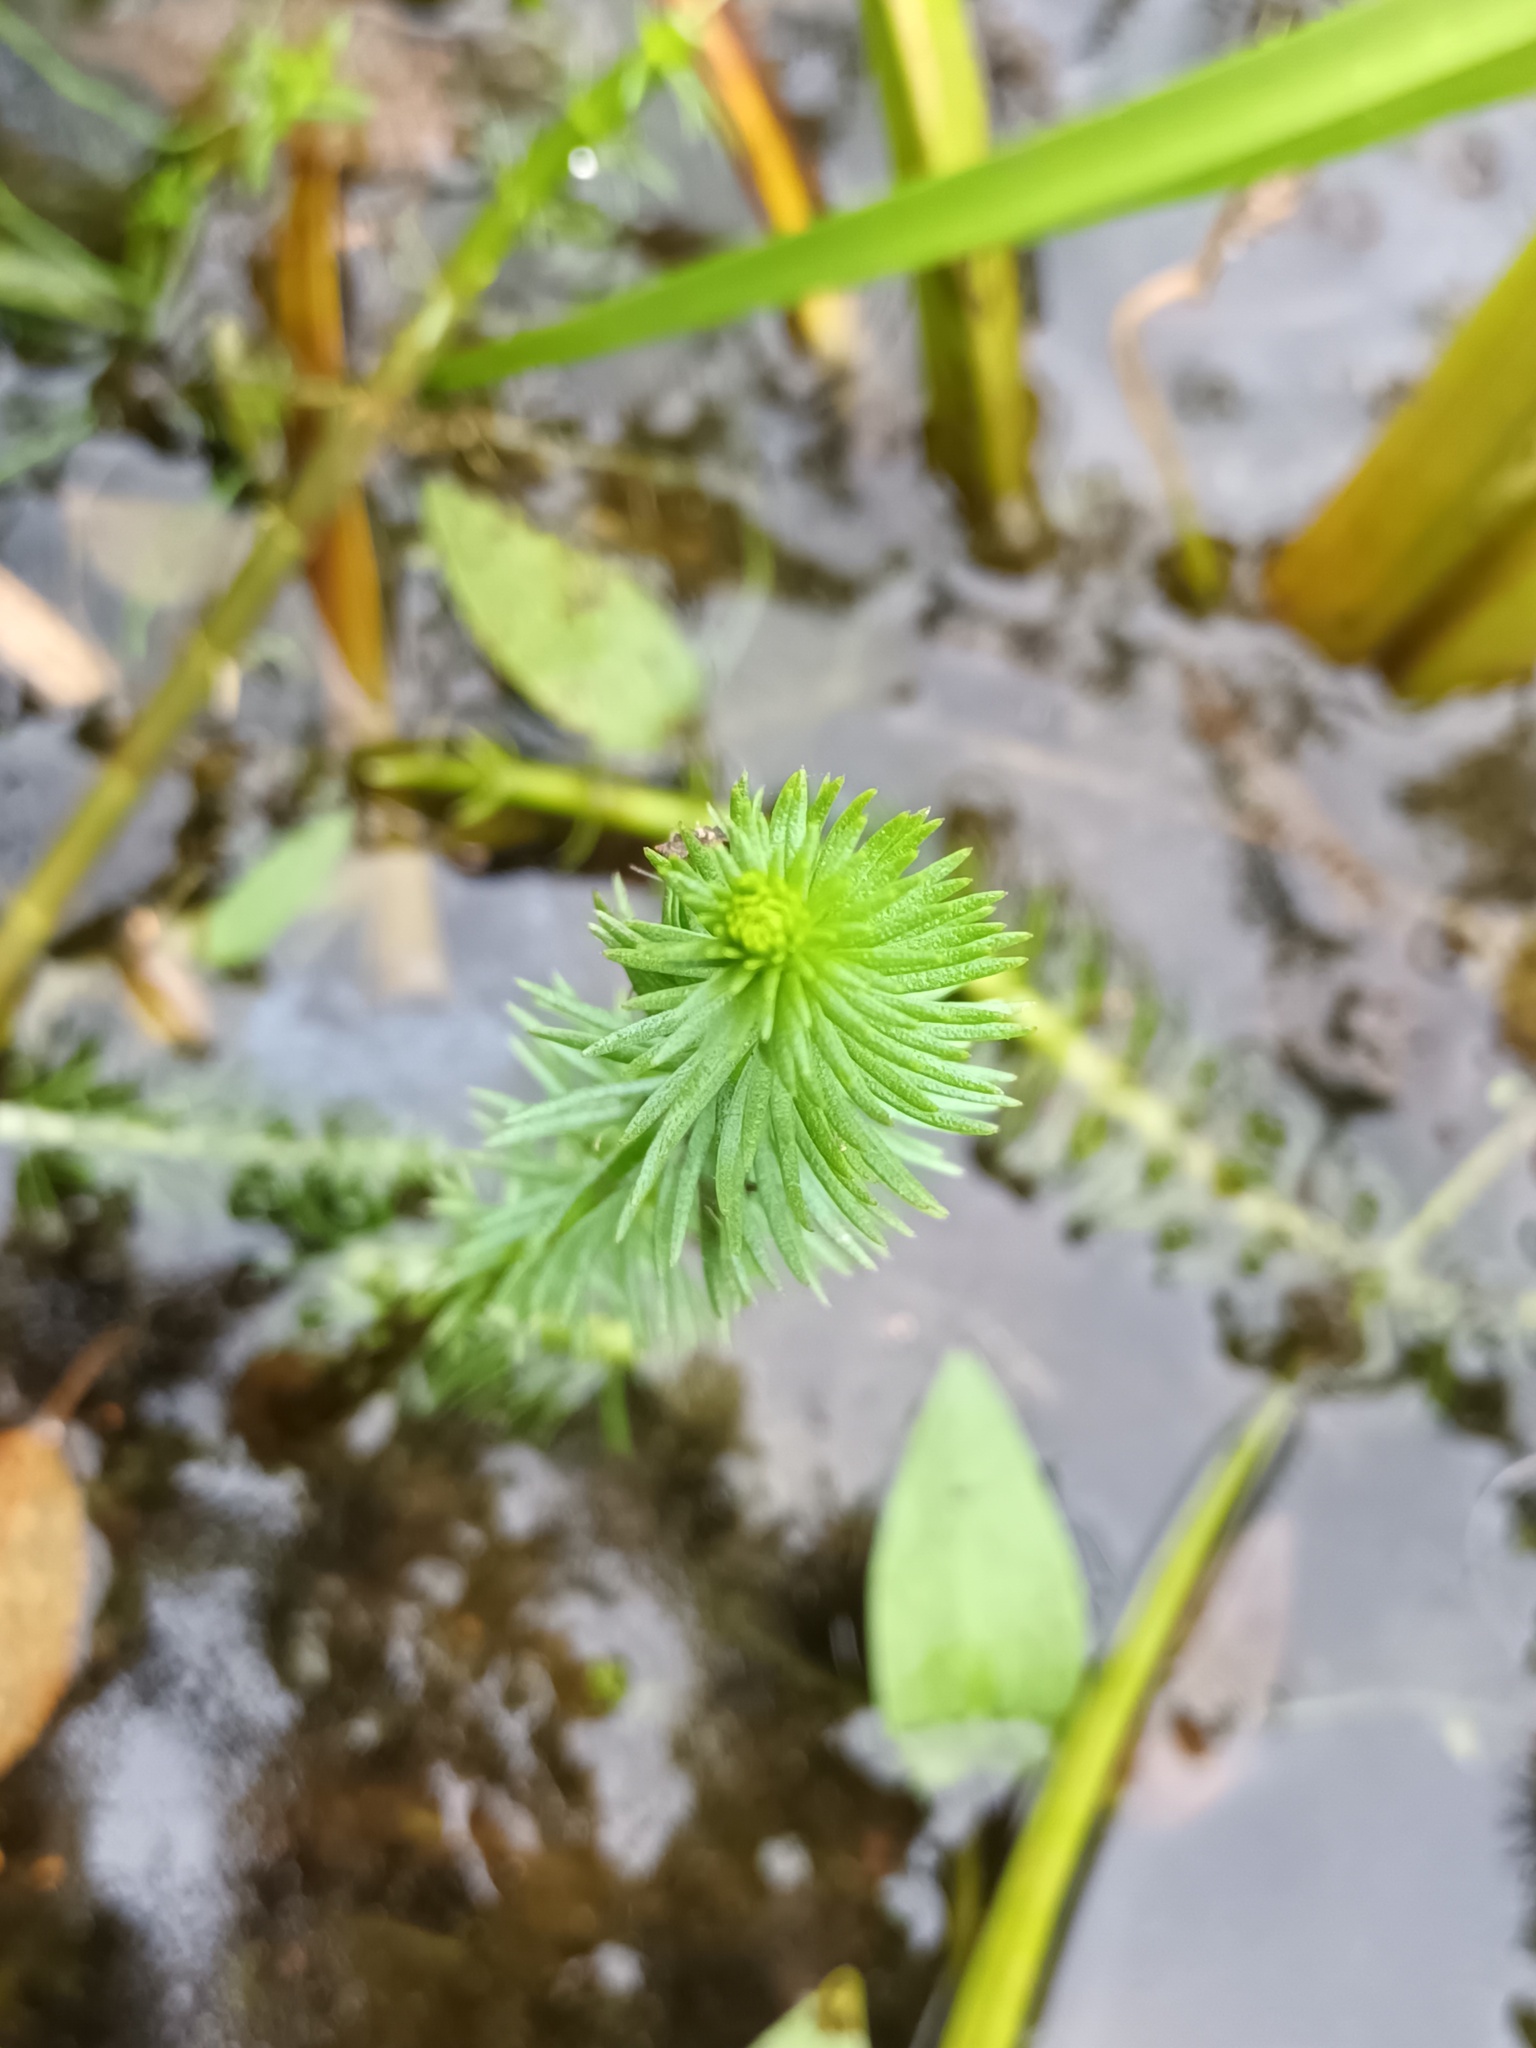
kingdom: Plantae
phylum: Tracheophyta
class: Magnoliopsida
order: Lamiales
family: Plantaginaceae
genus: Hippuris
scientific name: Hippuris vulgaris
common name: Mare's-tail
